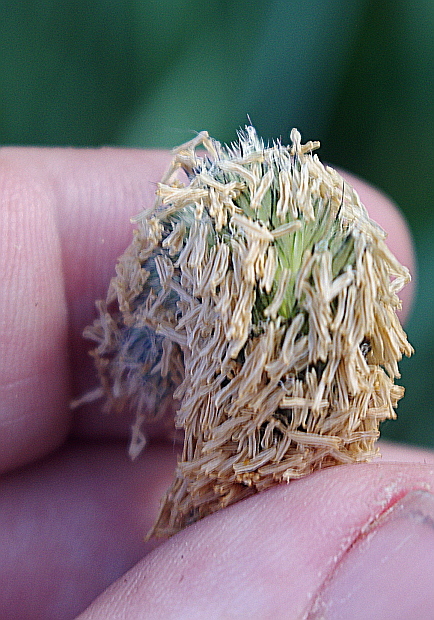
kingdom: Plantae
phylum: Tracheophyta
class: Liliopsida
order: Poales
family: Poaceae
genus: Alopecurus
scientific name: Alopecurus arundinaceus
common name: Creeping meadow foxtail
